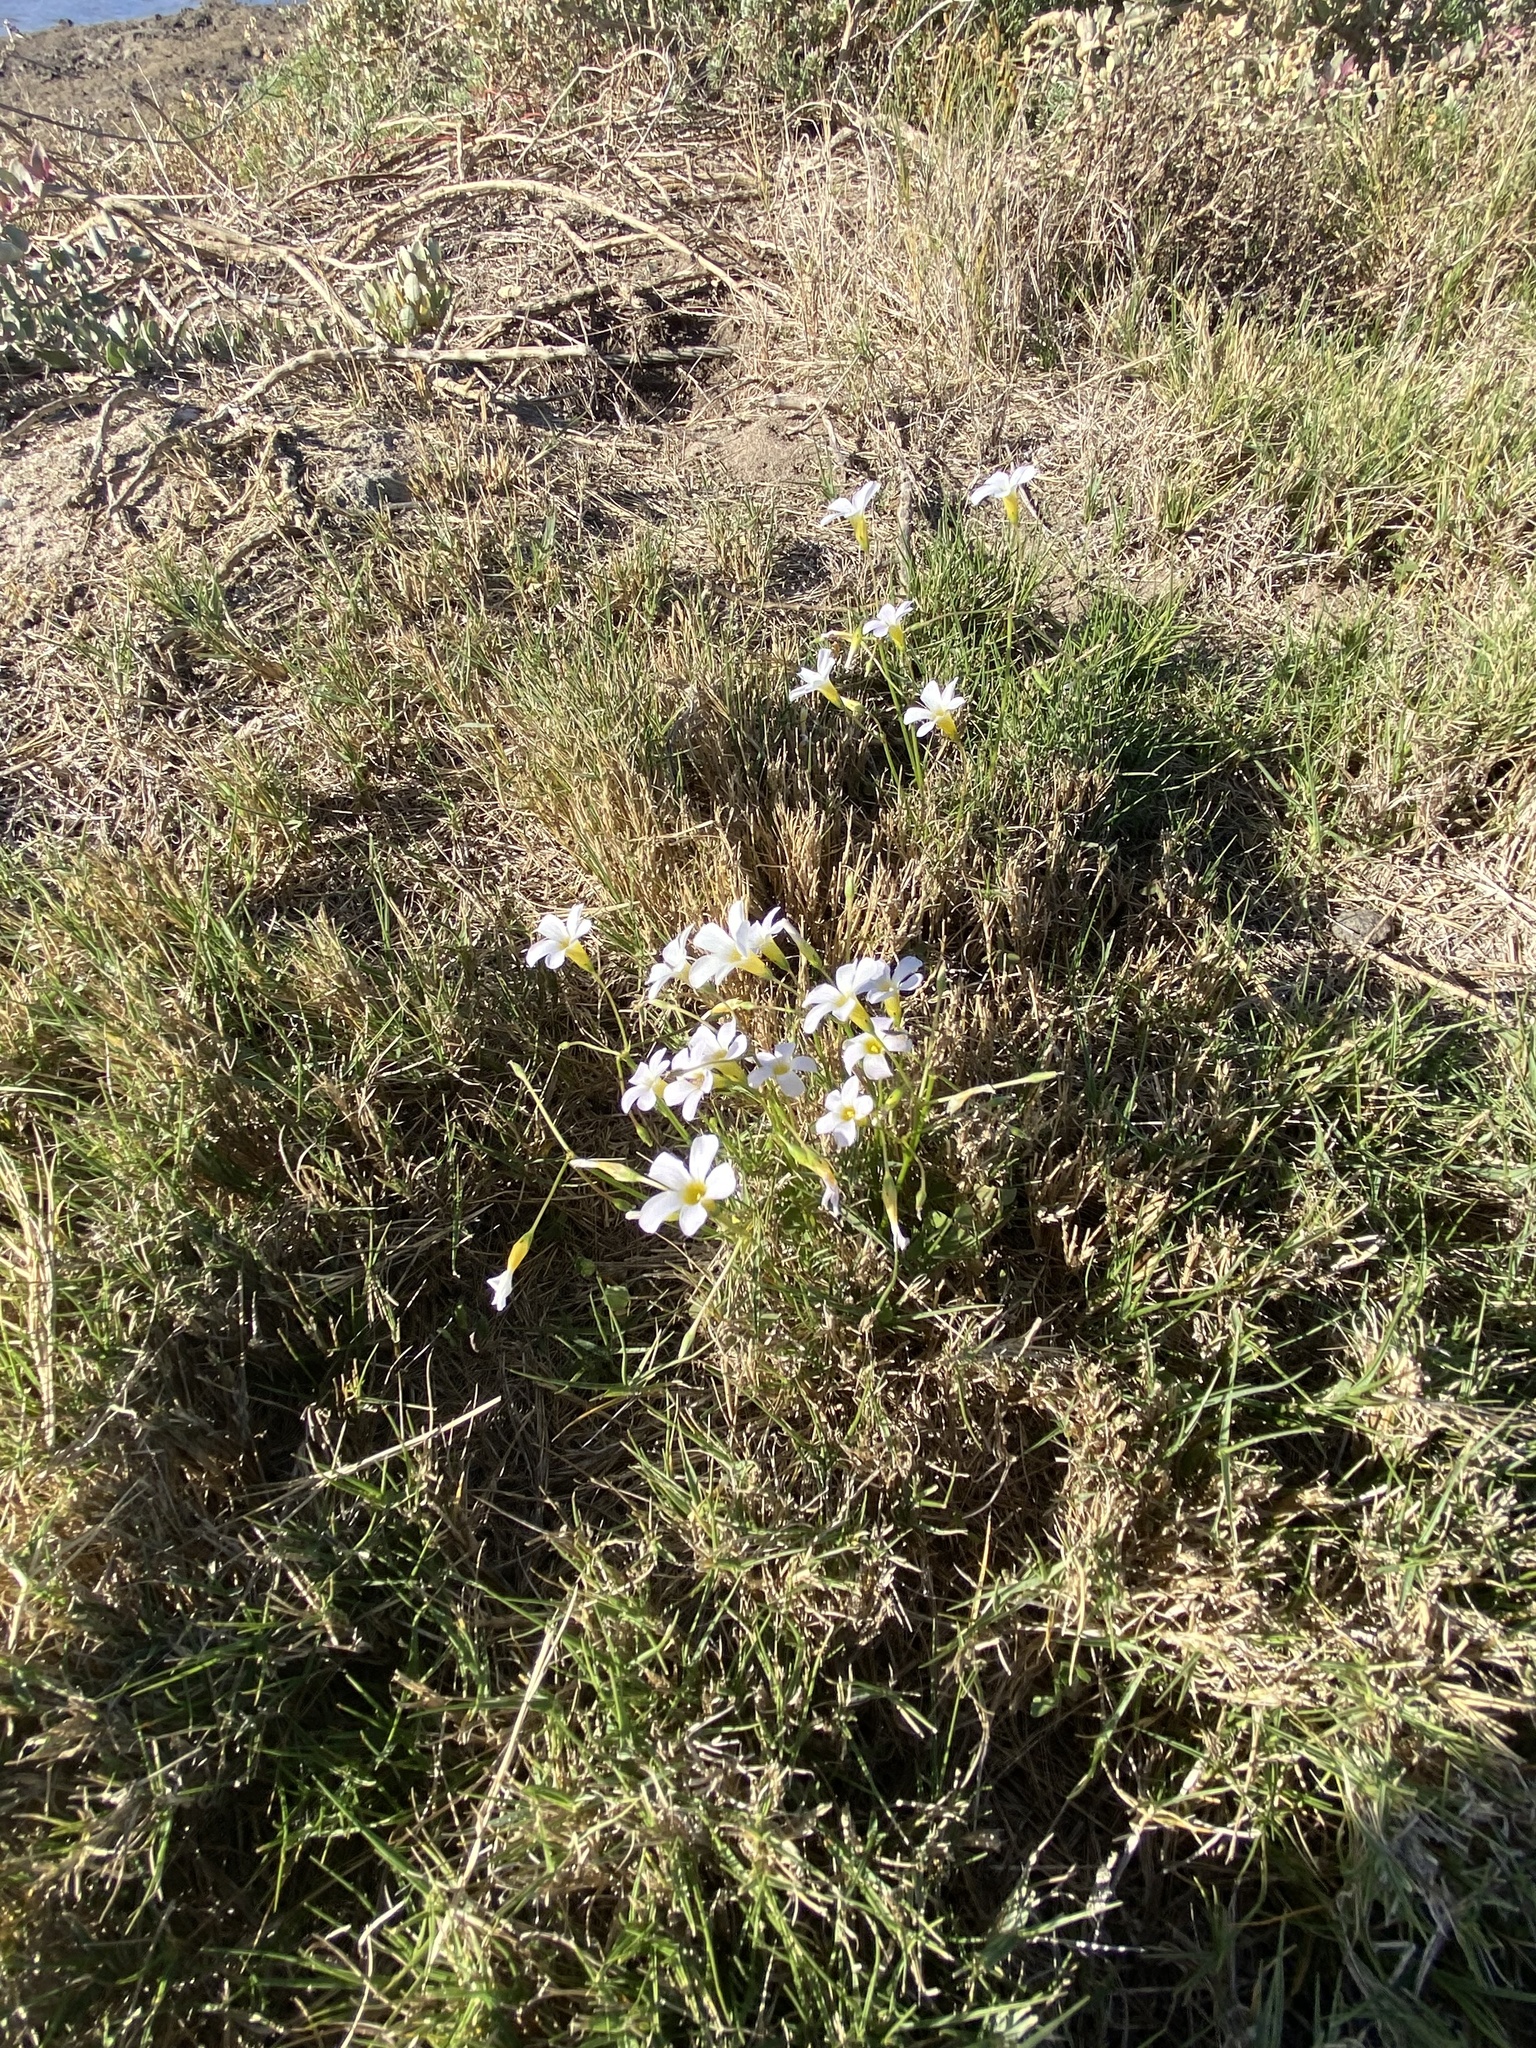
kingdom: Plantae
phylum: Tracheophyta
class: Magnoliopsida
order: Oxalidales
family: Oxalidaceae
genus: Oxalis
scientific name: Oxalis caprina
